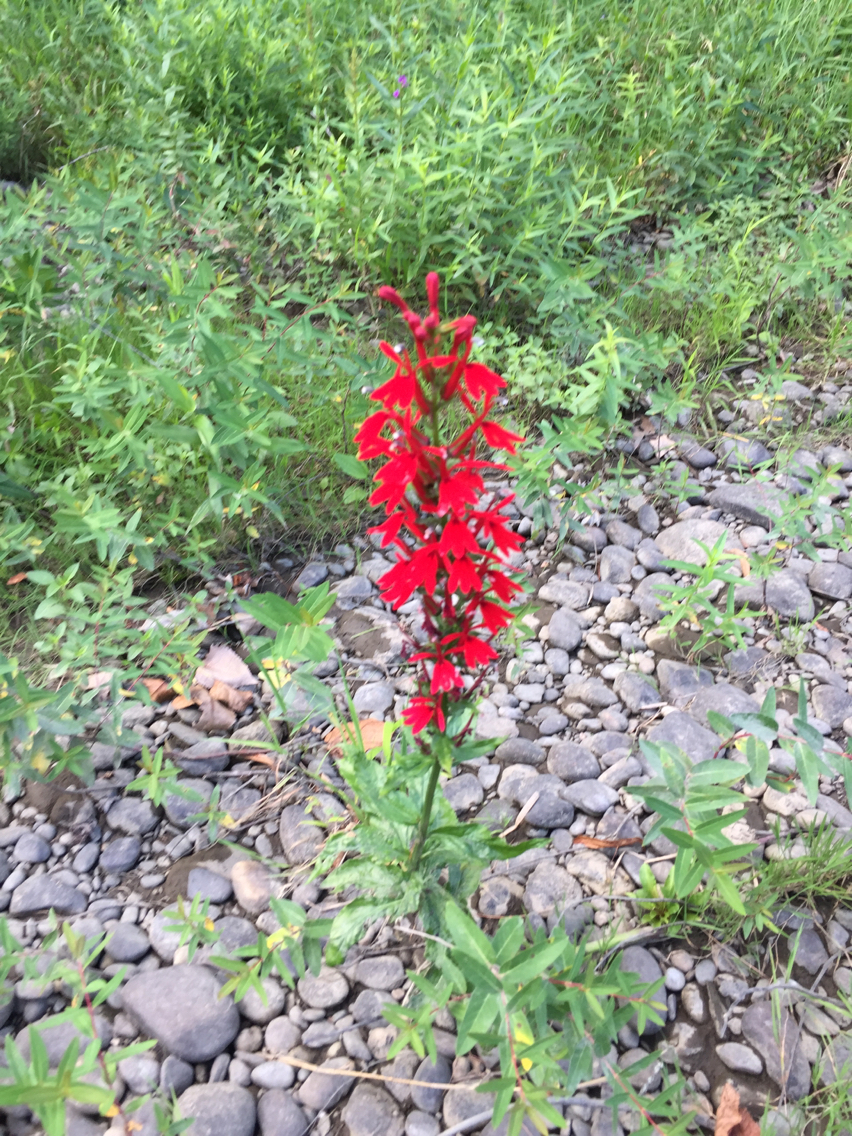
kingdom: Plantae
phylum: Tracheophyta
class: Magnoliopsida
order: Asterales
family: Campanulaceae
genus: Lobelia
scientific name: Lobelia cardinalis
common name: Cardinal flower
